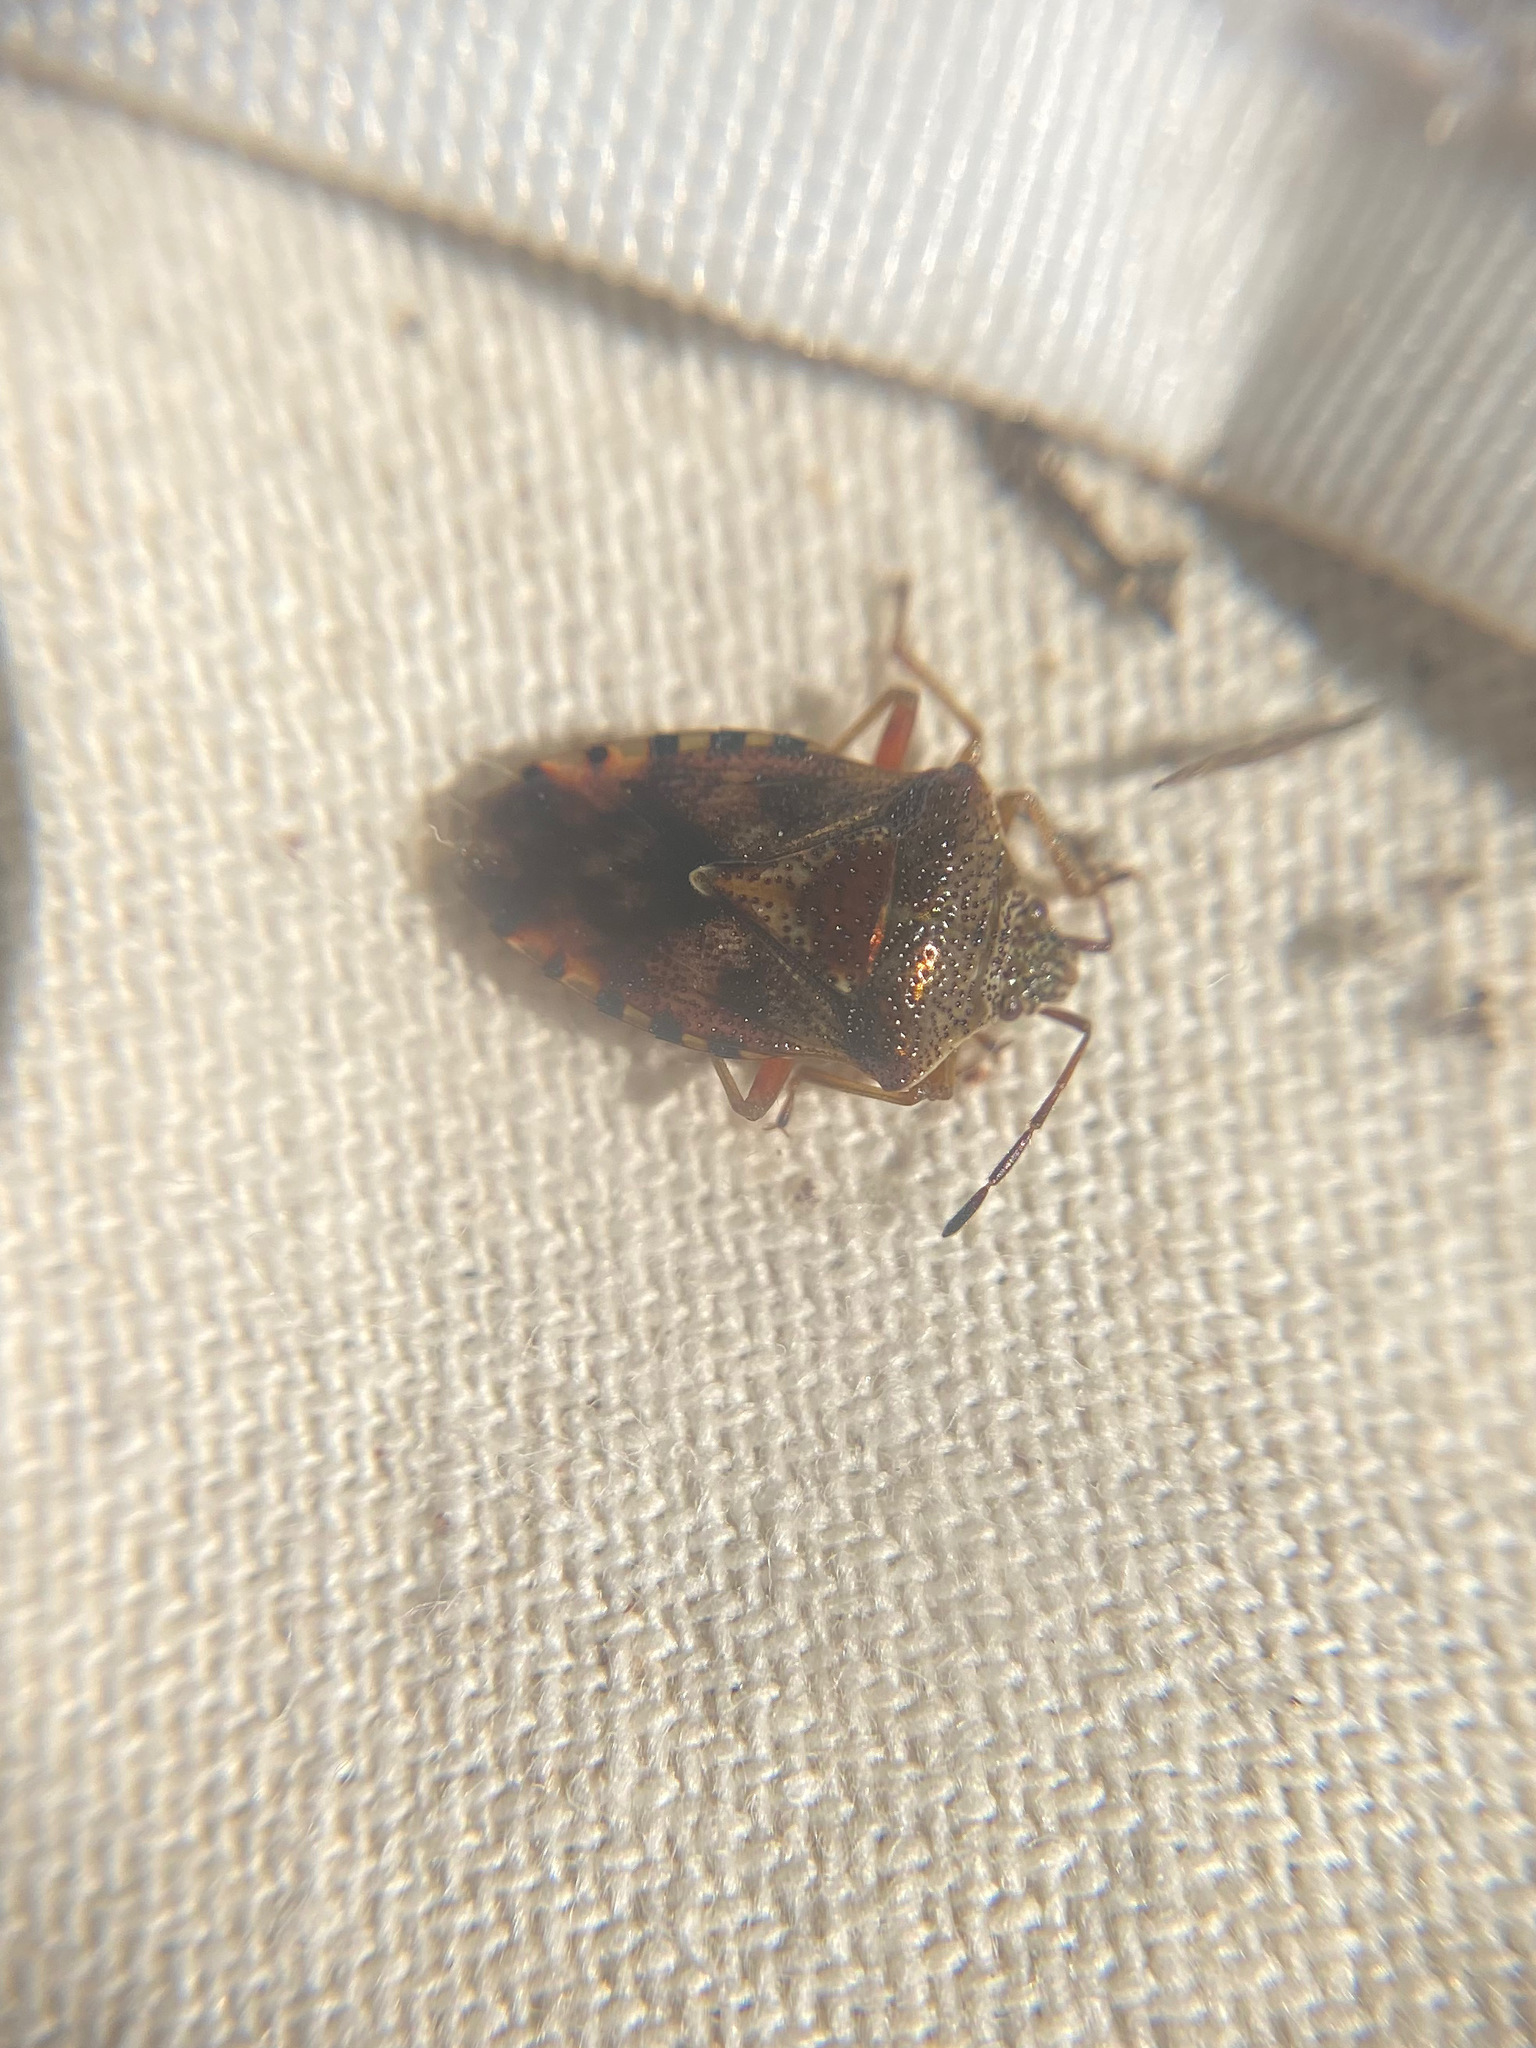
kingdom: Animalia
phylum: Arthropoda
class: Insecta
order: Hemiptera
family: Acanthosomatidae
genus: Elasmucha
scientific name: Elasmucha lateralis
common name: Shield bug
